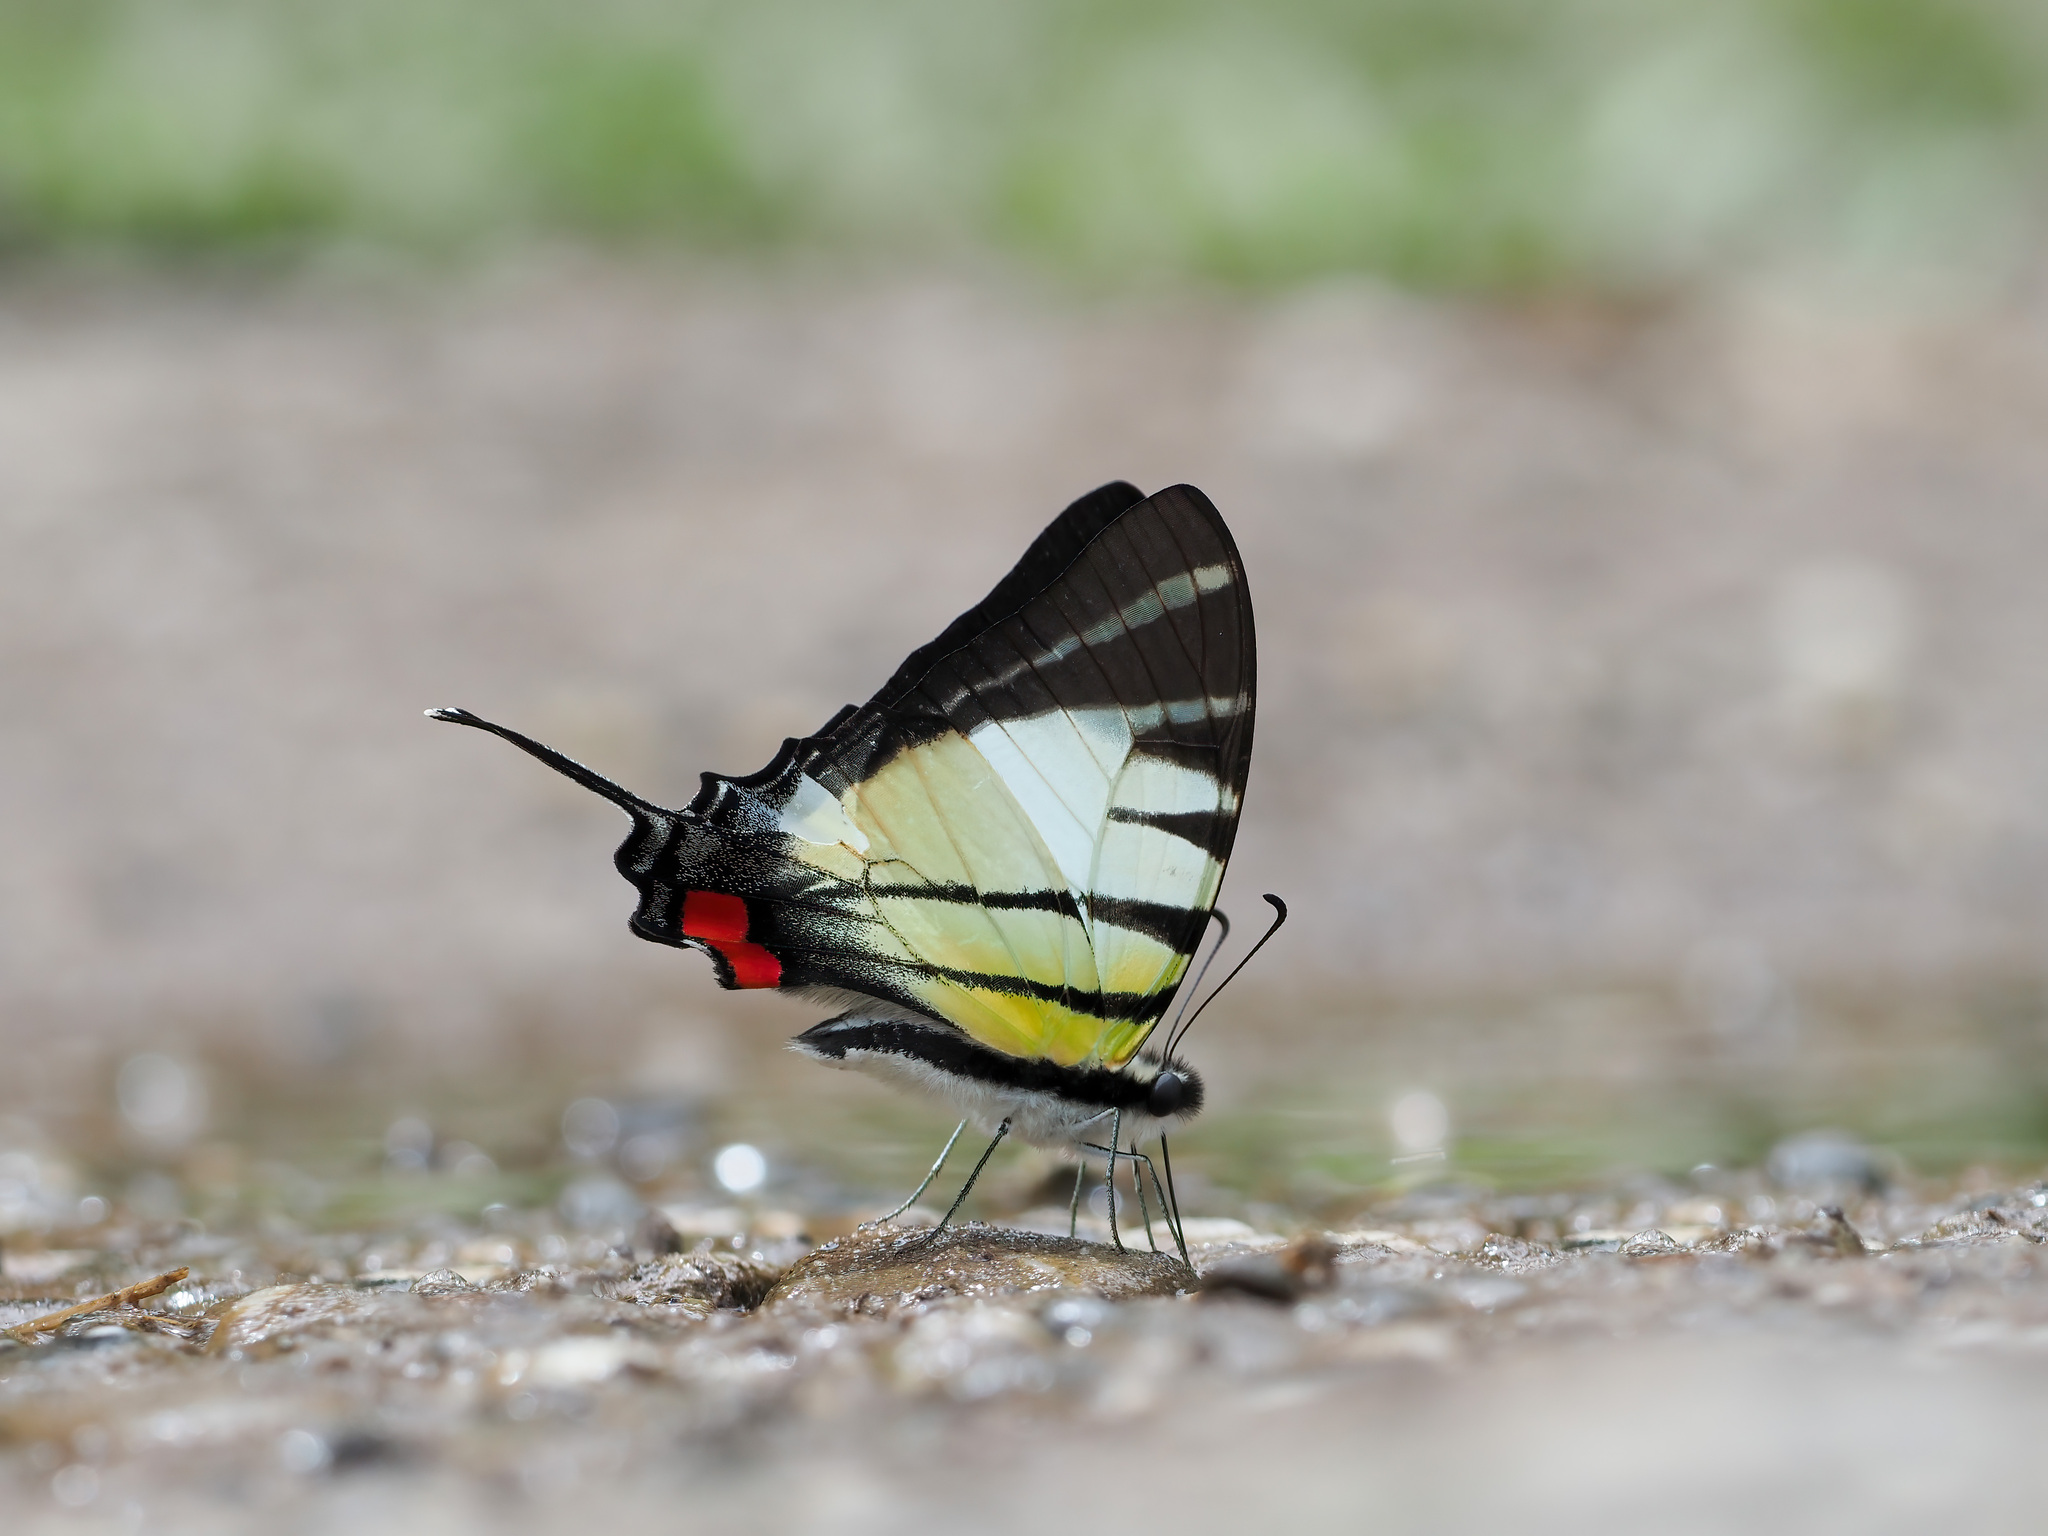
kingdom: Animalia
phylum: Arthropoda
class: Insecta
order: Lepidoptera
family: Papilionidae
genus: Graphium
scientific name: Graphium stratiotes
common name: Kinabalu swordtail
